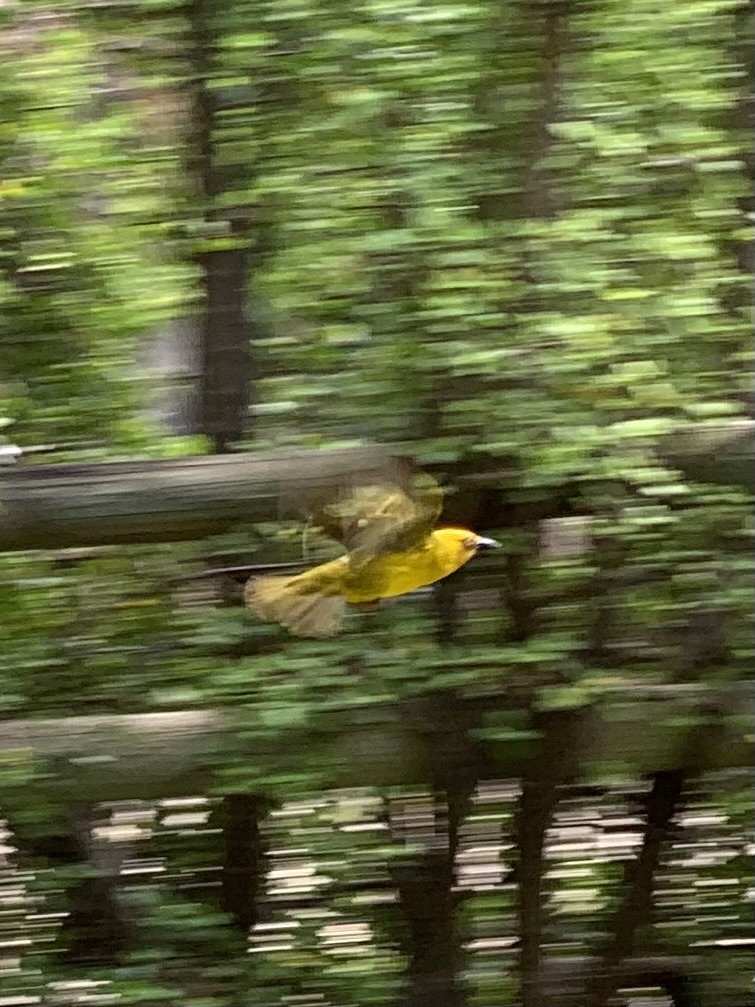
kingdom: Animalia
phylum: Chordata
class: Aves
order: Passeriformes
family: Ploceidae
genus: Ploceus
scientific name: Ploceus capensis
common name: Cape weaver
